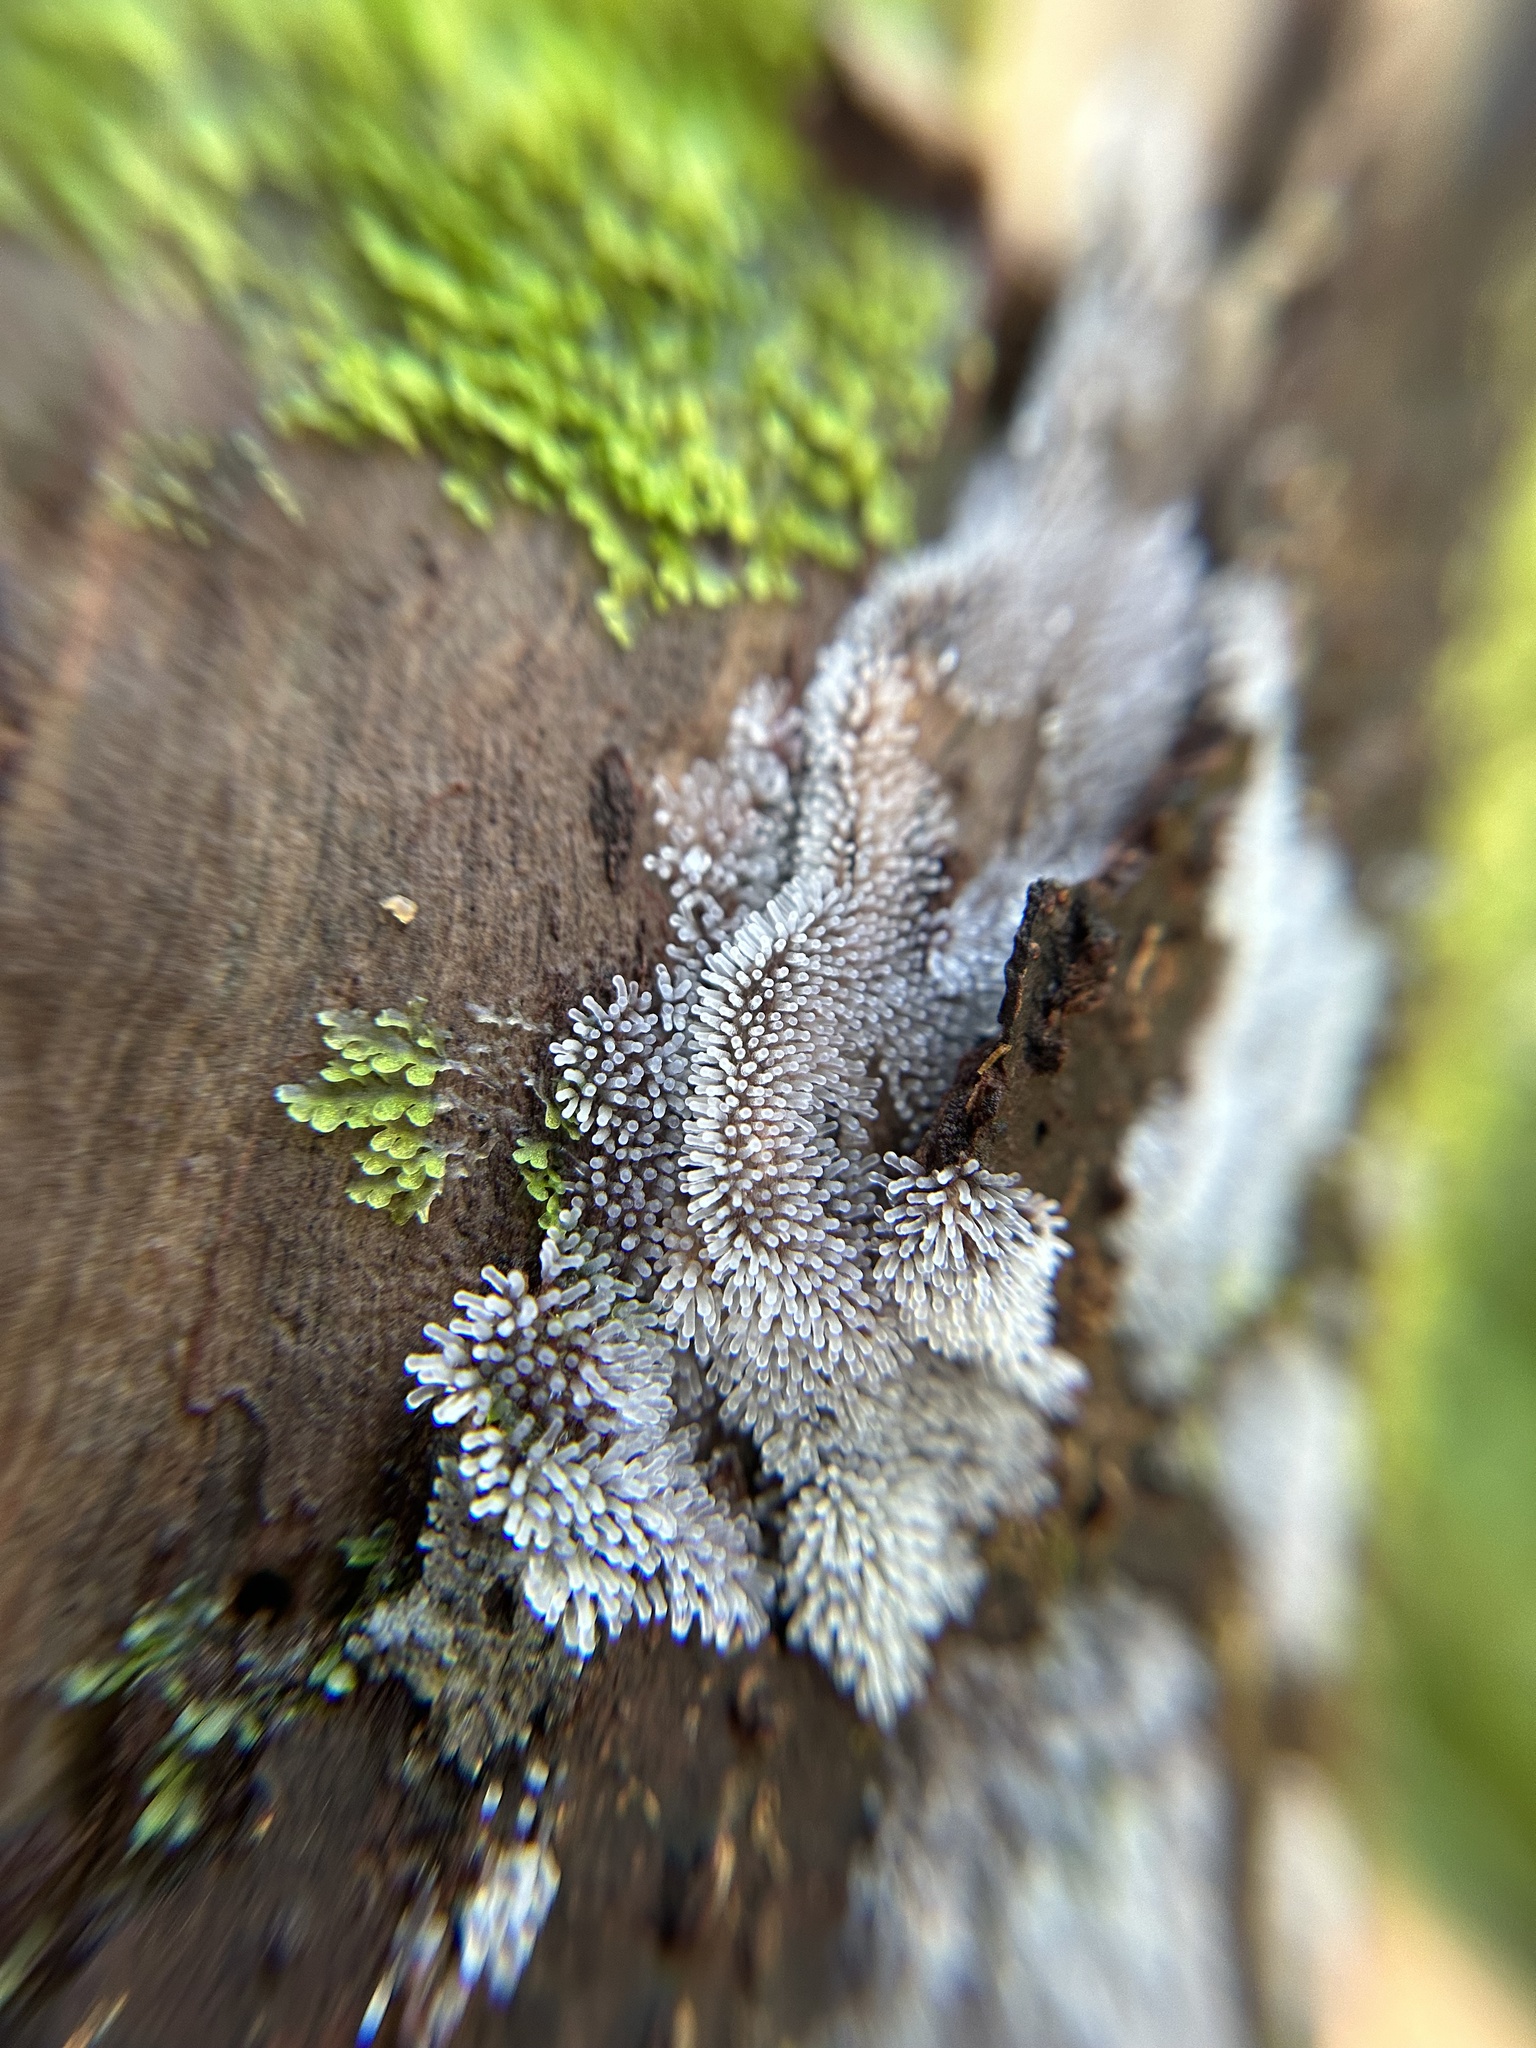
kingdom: Protozoa
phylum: Mycetozoa
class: Protosteliomycetes
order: Ceratiomyxales
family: Ceratiomyxaceae
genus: Ceratiomyxa
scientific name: Ceratiomyxa fruticulosa
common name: Honeycomb coral slime mold
